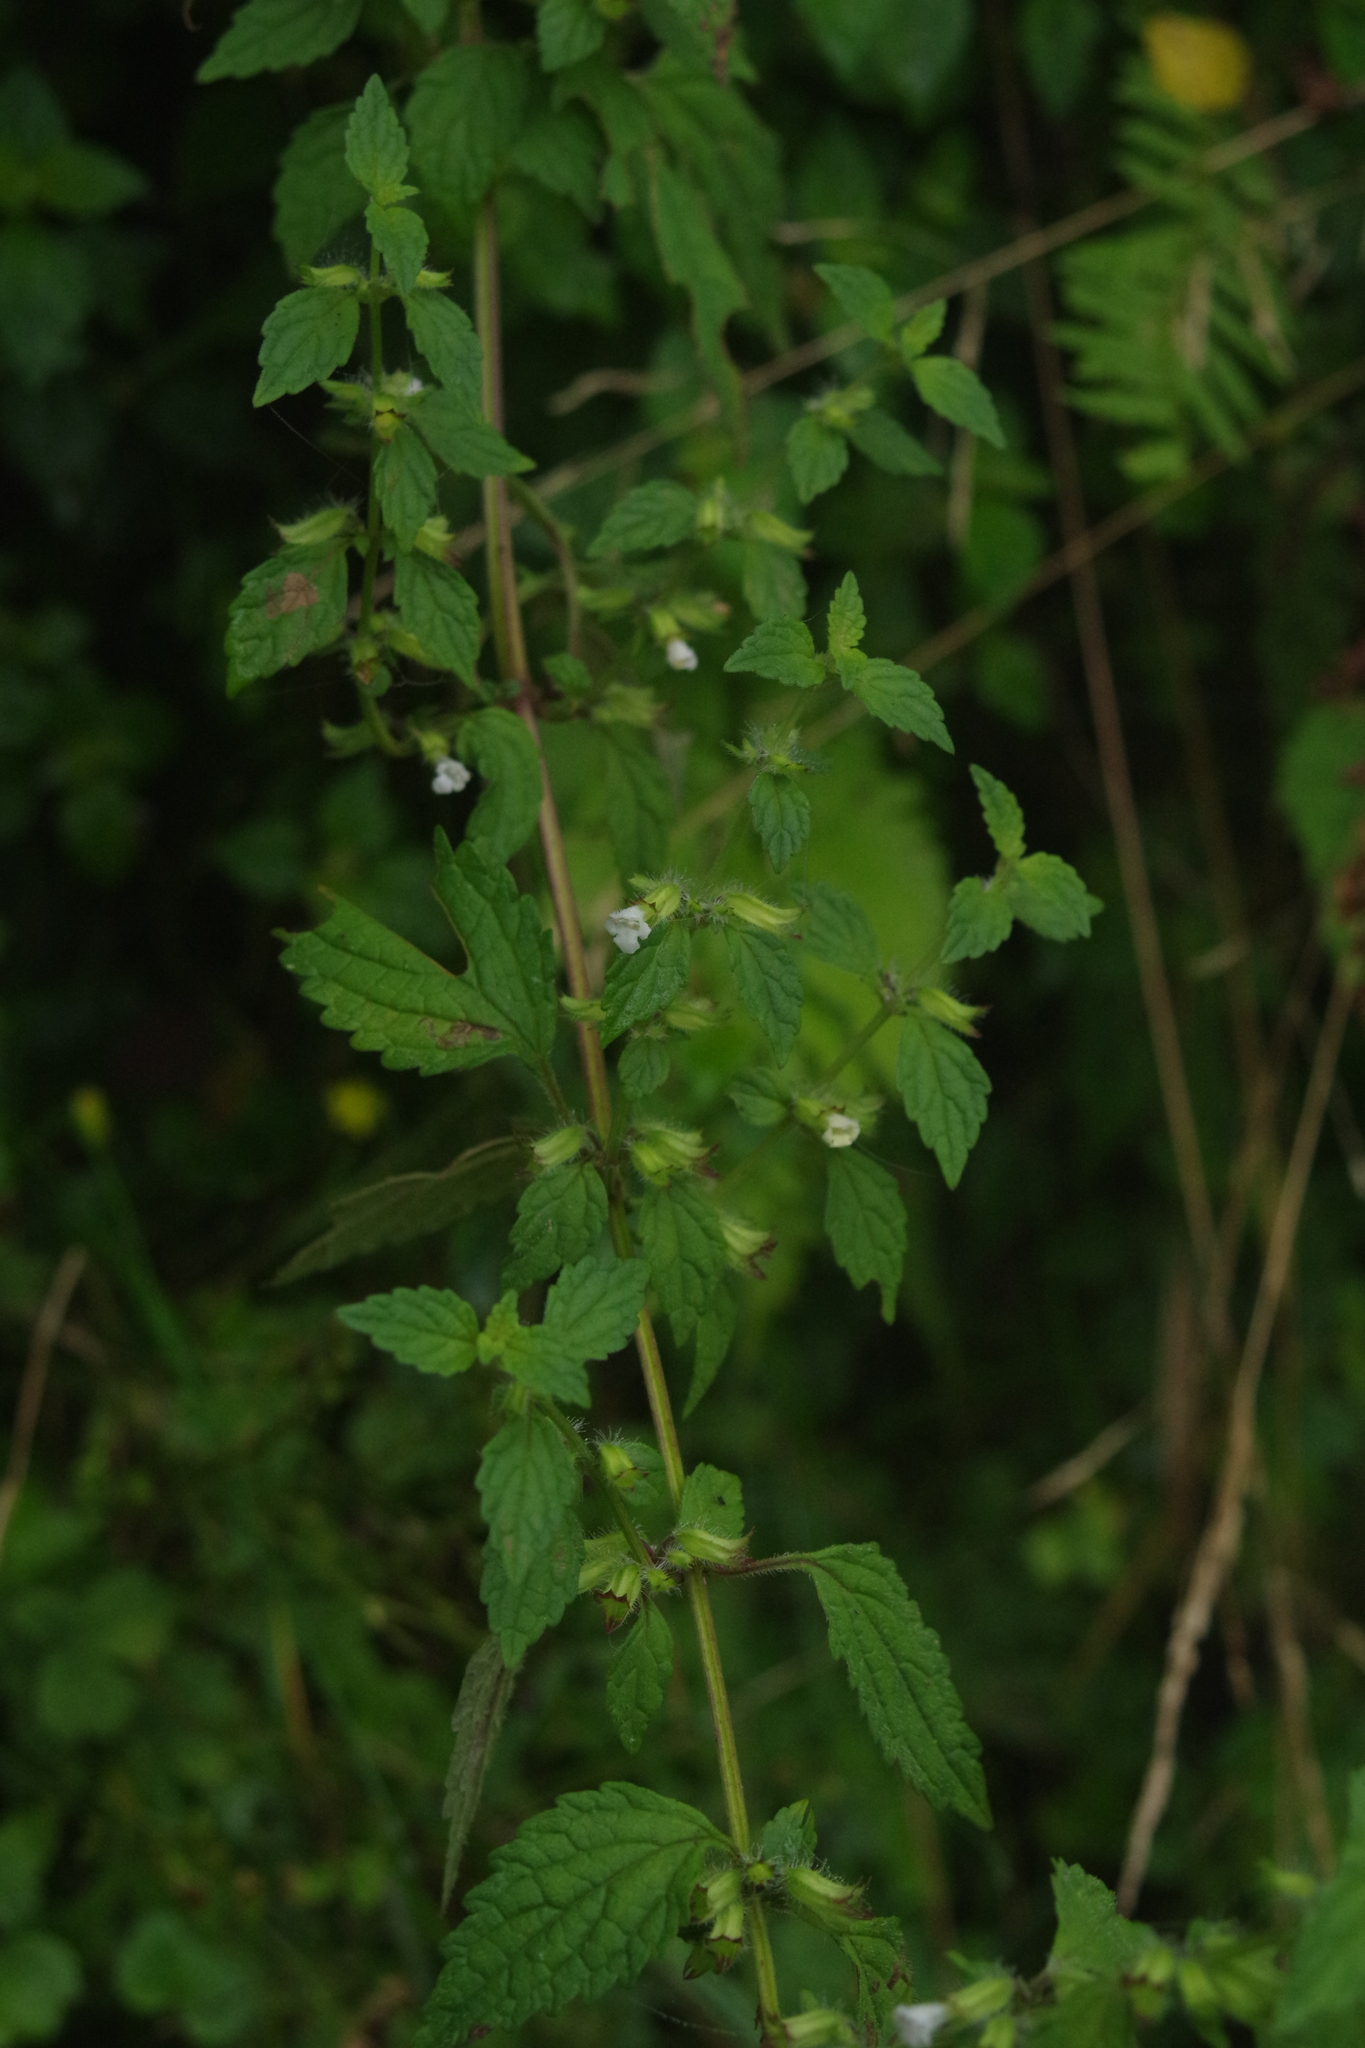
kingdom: Plantae
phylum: Tracheophyta
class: Magnoliopsida
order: Lamiales
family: Lamiaceae
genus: Melissa
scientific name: Melissa axillaris
